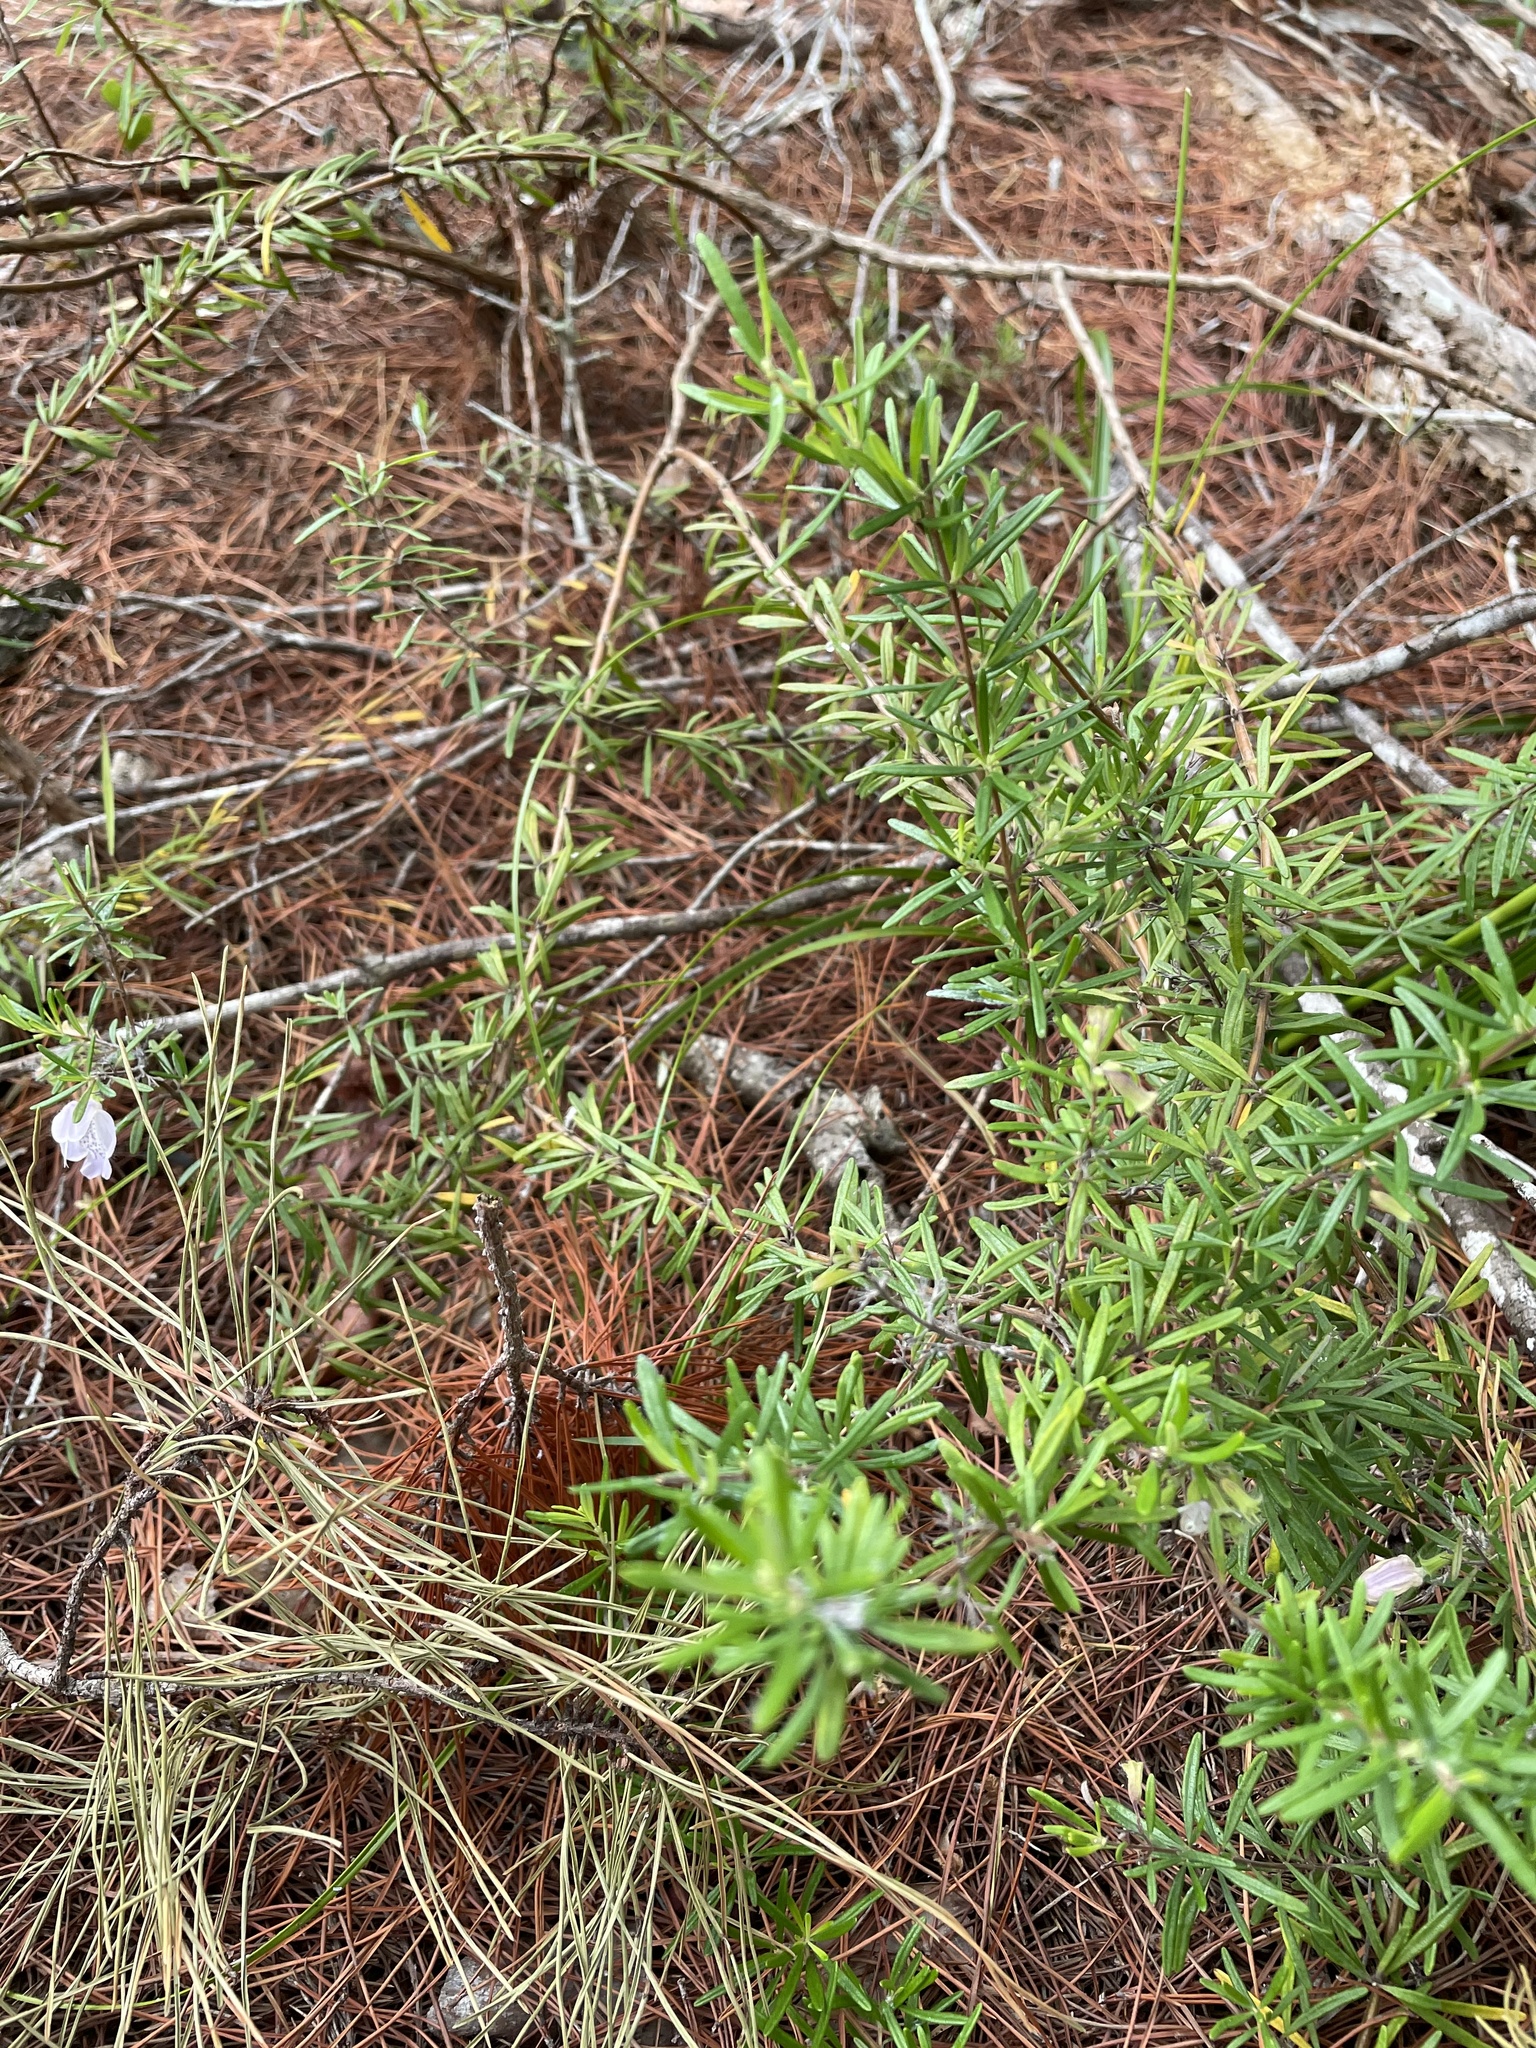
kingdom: Plantae
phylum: Tracheophyta
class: Magnoliopsida
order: Lamiales
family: Lamiaceae
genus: Conradina
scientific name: Conradina grandiflora
